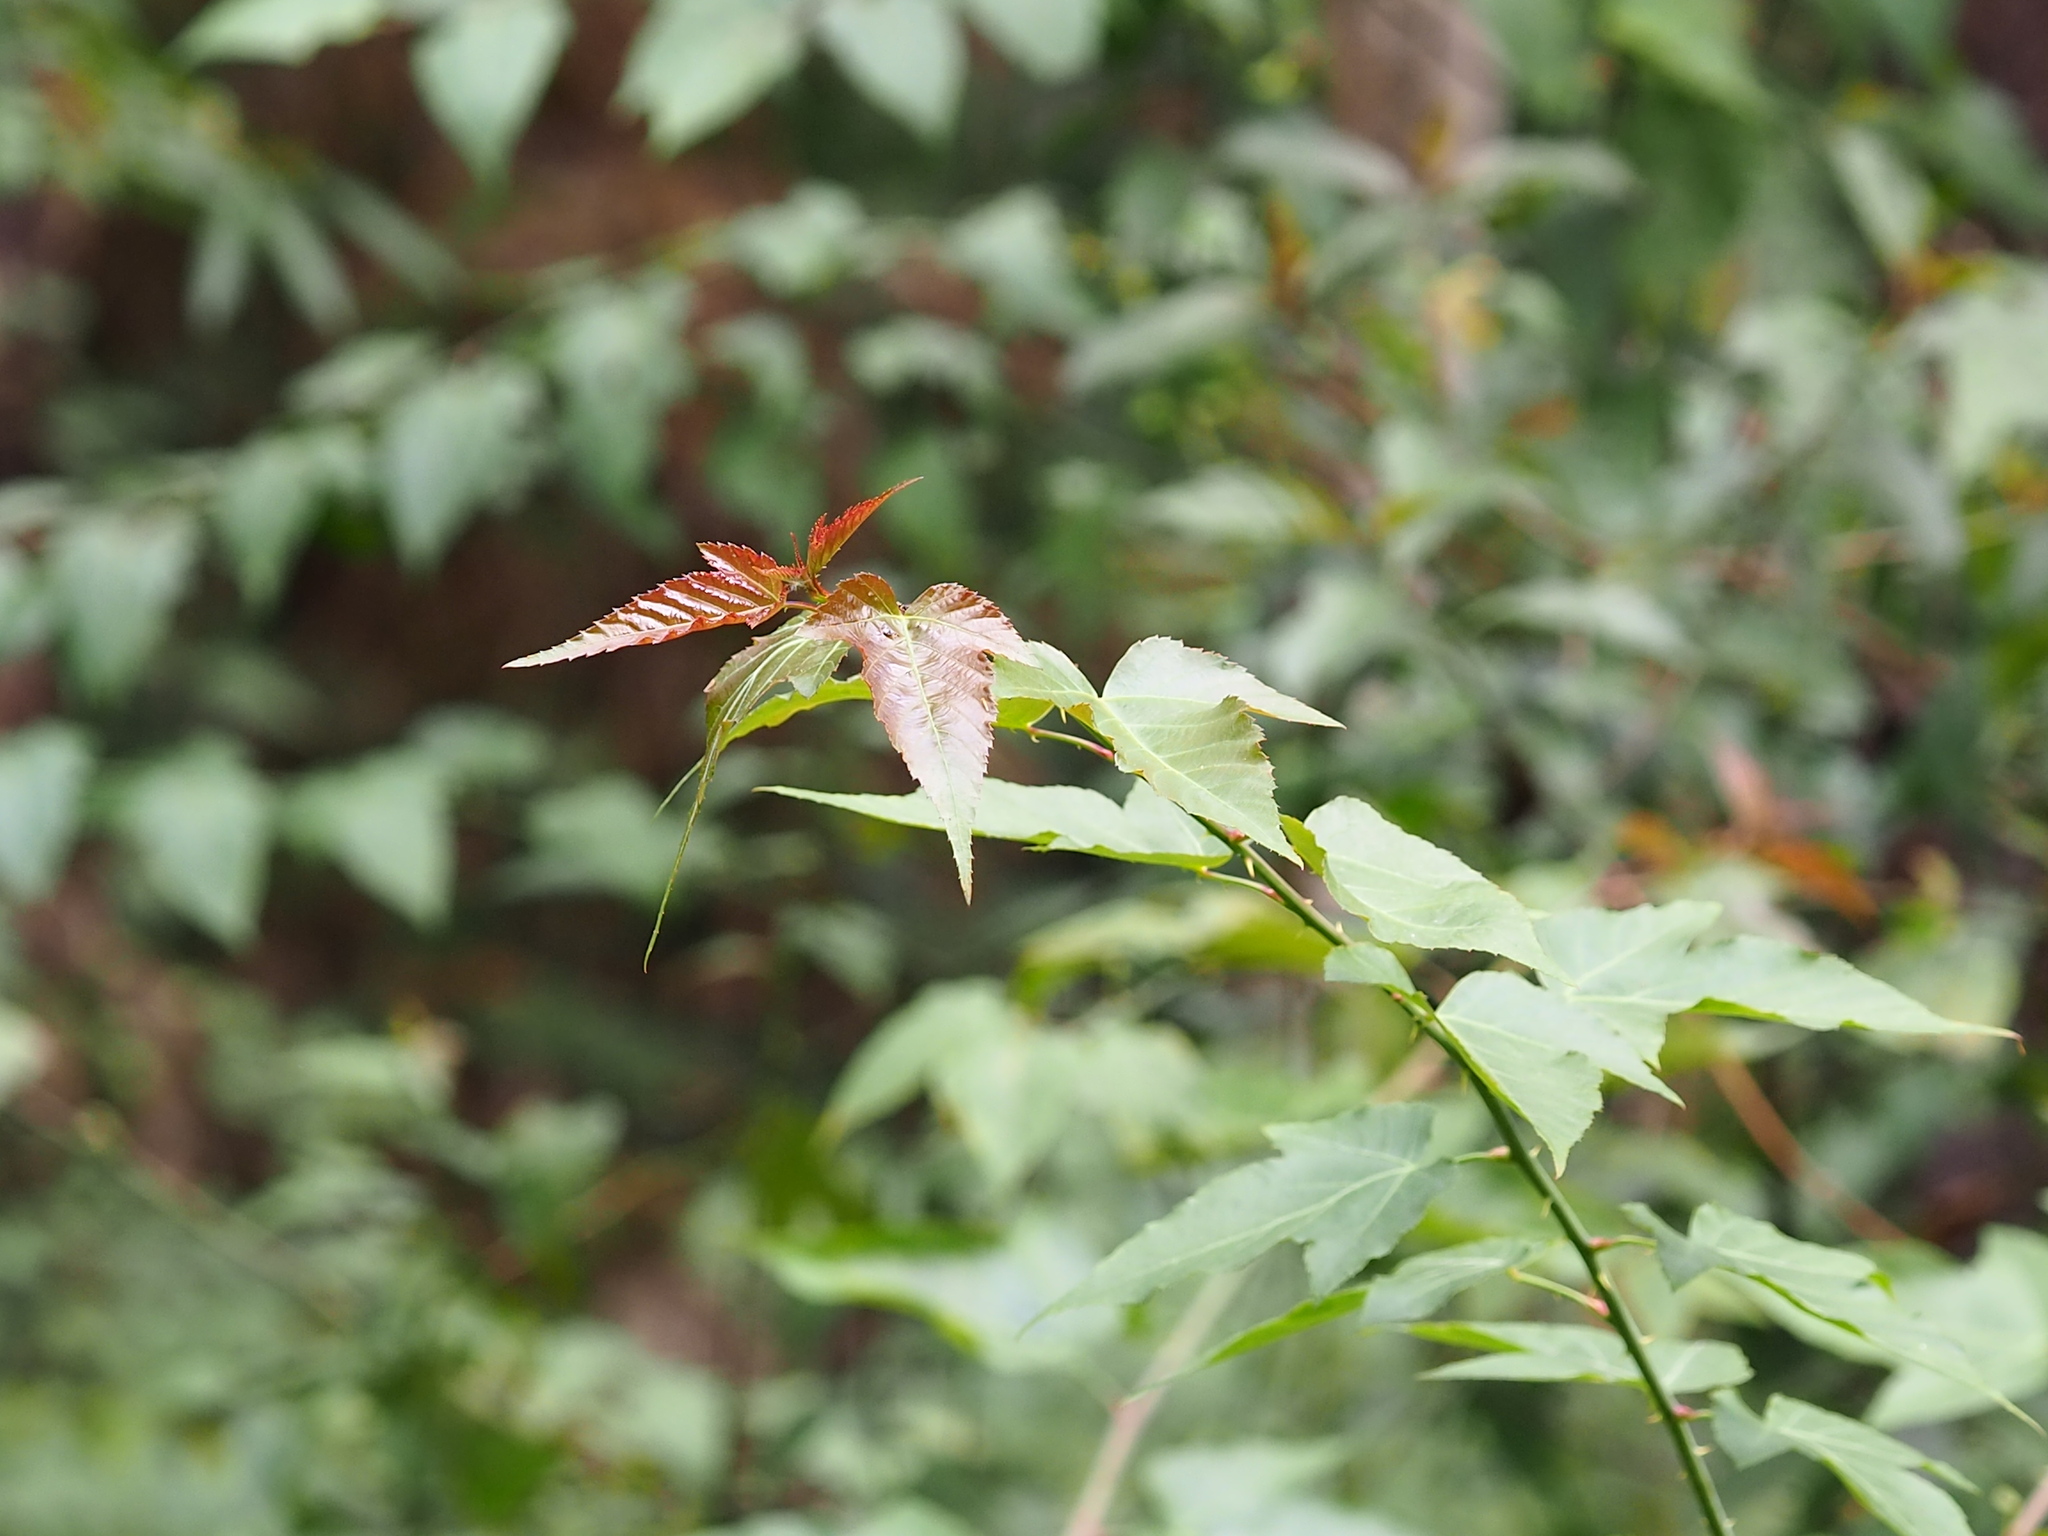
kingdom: Plantae
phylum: Tracheophyta
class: Magnoliopsida
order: Rosales
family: Rosaceae
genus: Rubus
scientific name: Rubus corchorifolius
